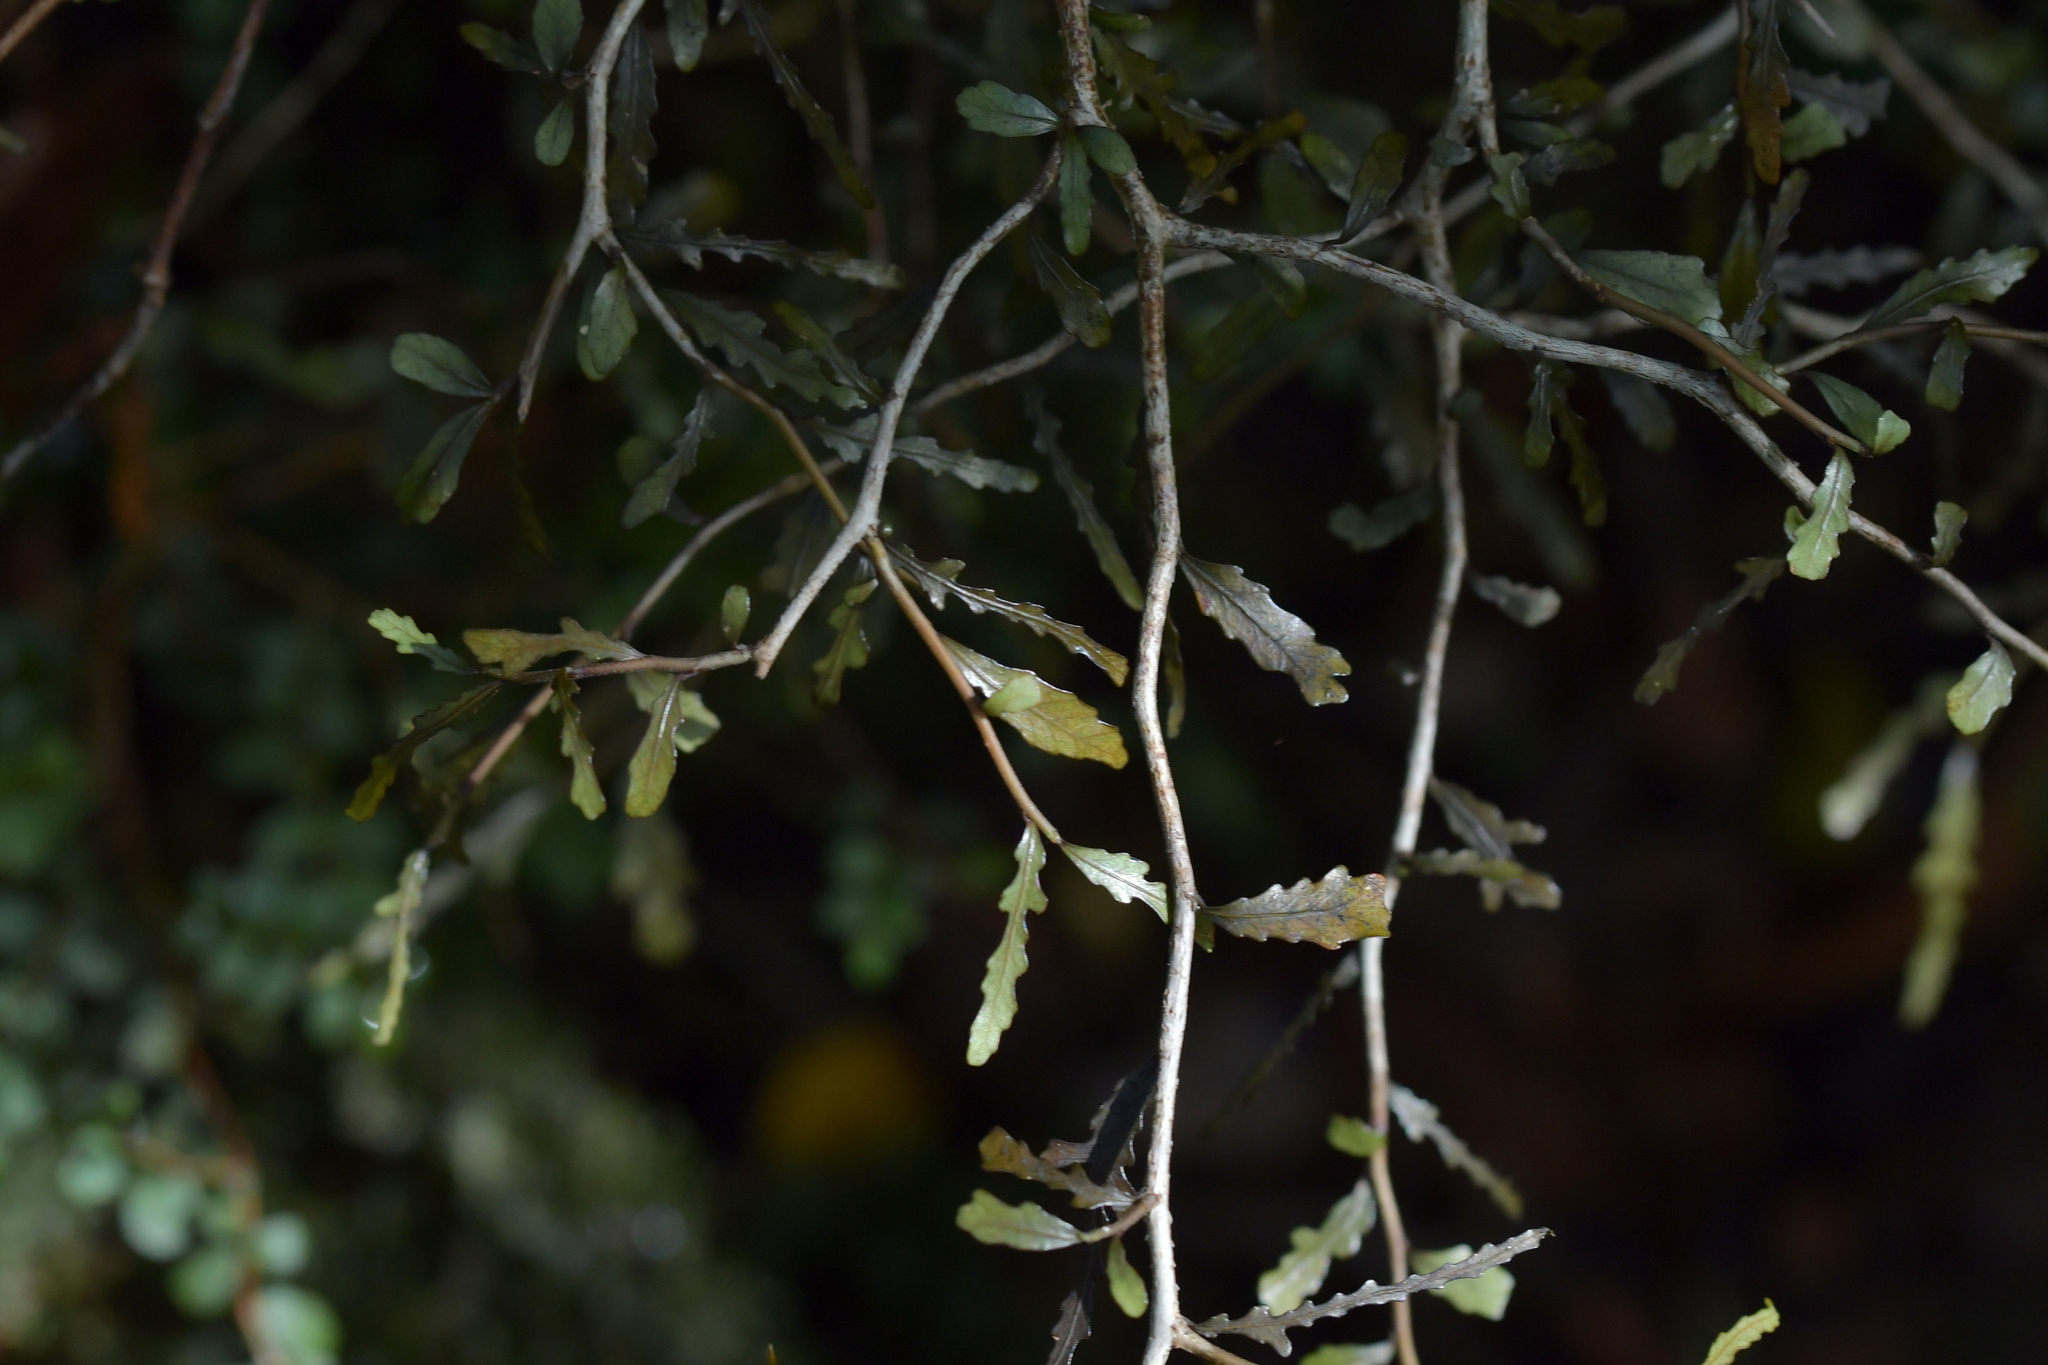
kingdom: Plantae
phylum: Tracheophyta
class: Magnoliopsida
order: Oxalidales
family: Elaeocarpaceae
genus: Elaeocarpus
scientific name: Elaeocarpus hookerianus
